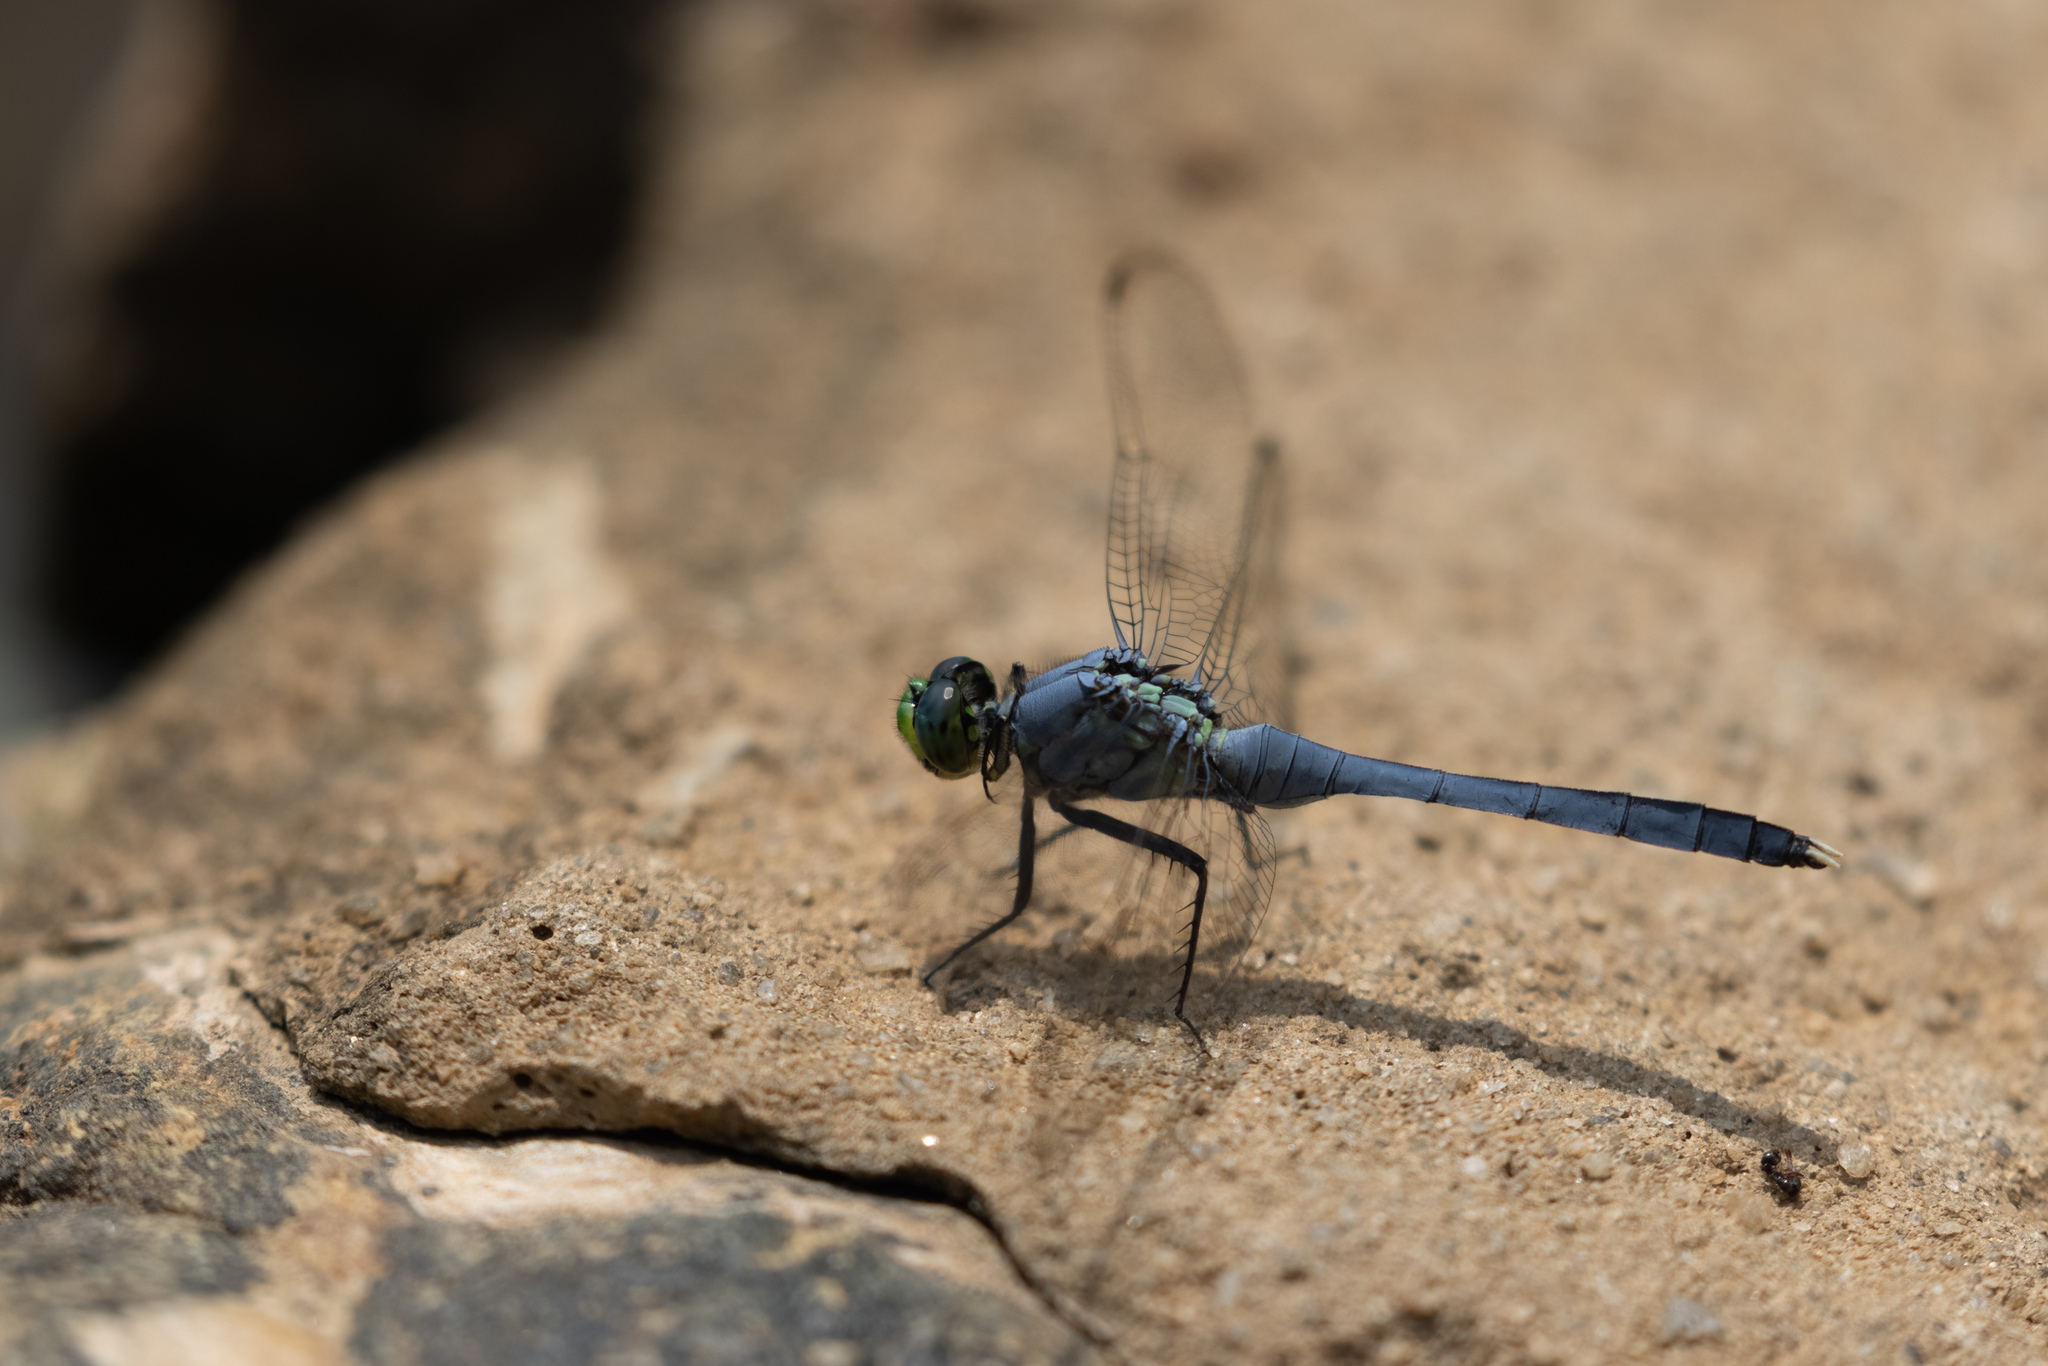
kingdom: Animalia
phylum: Arthropoda
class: Insecta
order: Odonata
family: Libellulidae
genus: Erythemis
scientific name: Erythemis simplicicollis
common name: Eastern pondhawk
